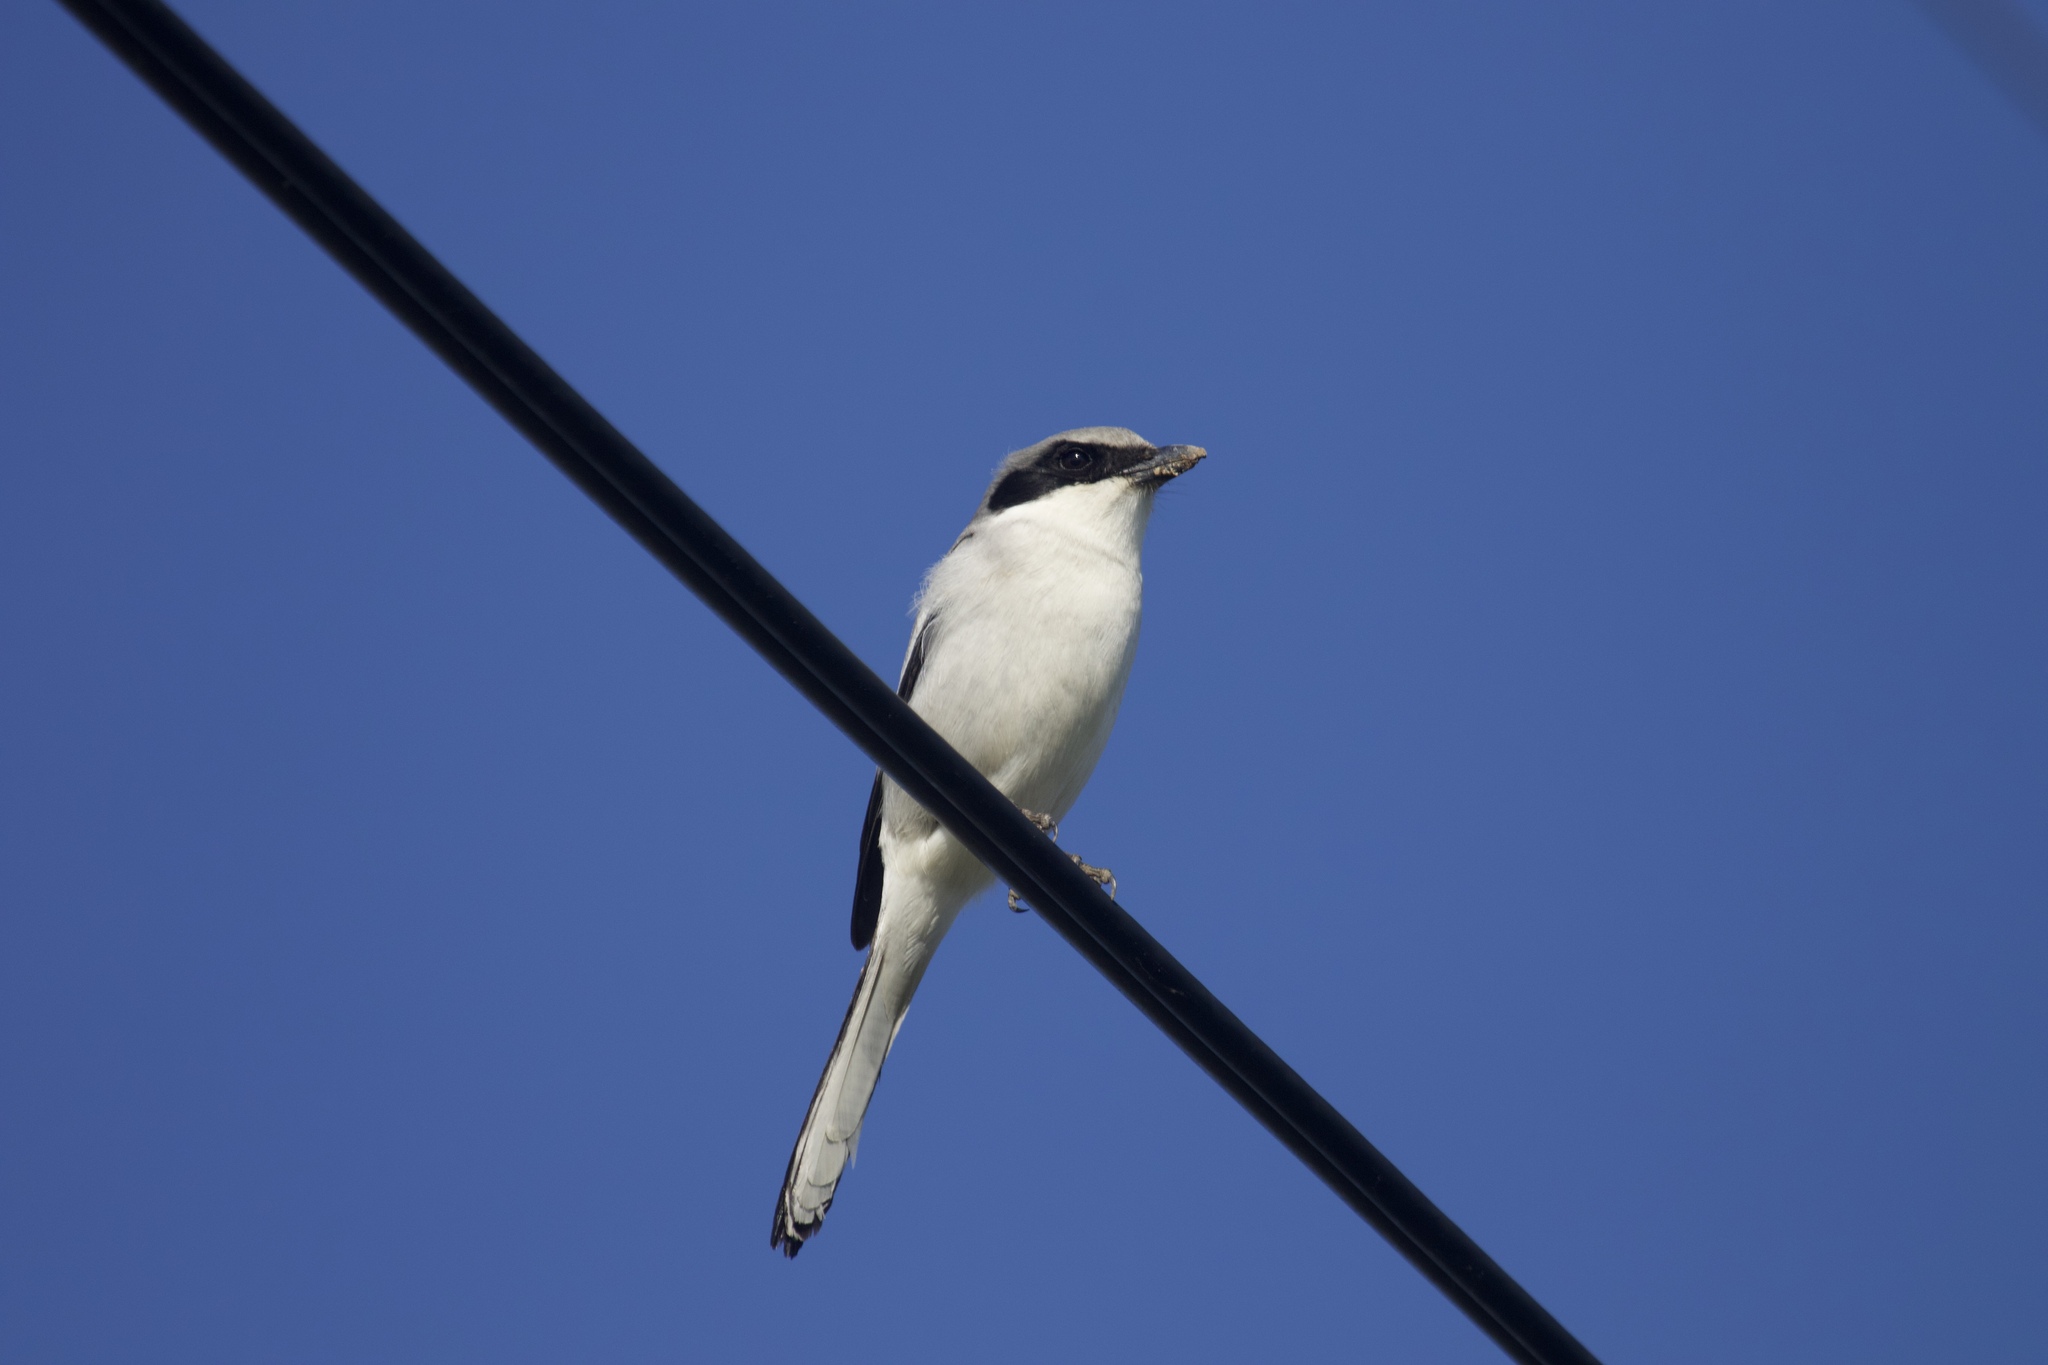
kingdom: Animalia
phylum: Chordata
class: Aves
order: Passeriformes
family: Laniidae
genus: Lanius
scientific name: Lanius ludovicianus
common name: Loggerhead shrike
